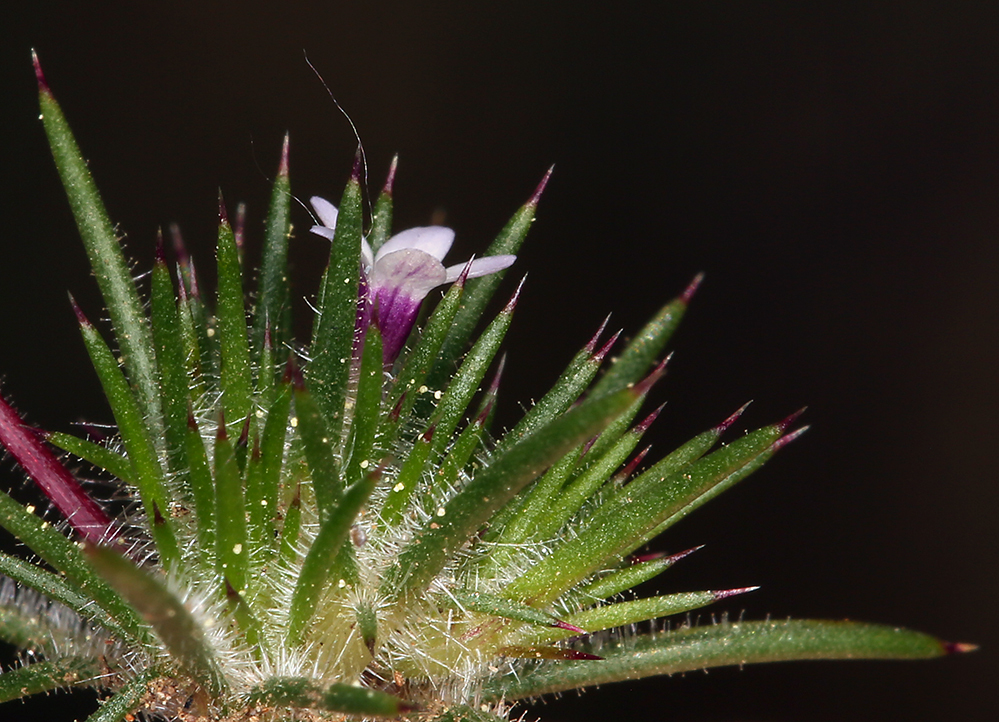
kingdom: Plantae
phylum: Tracheophyta
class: Magnoliopsida
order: Ericales
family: Polemoniaceae
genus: Navarretia
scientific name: Navarretia torreyella
